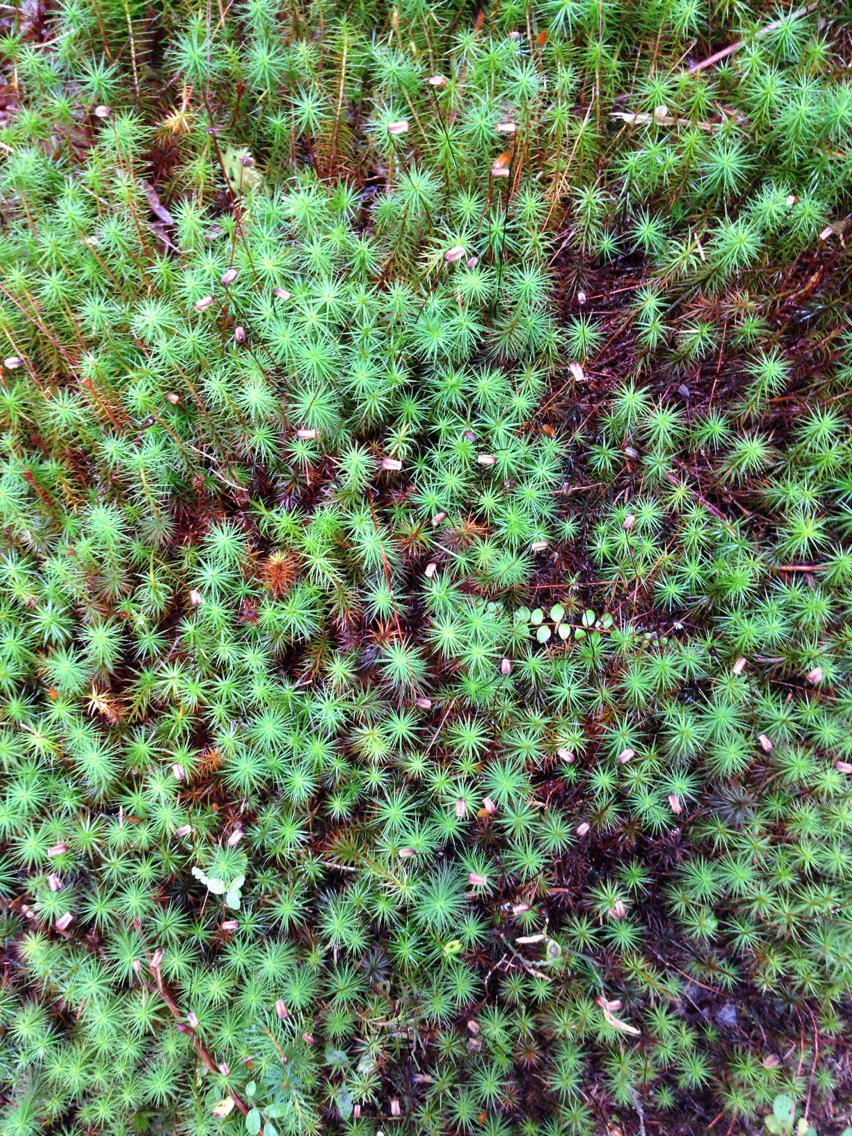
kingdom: Plantae
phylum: Bryophyta
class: Polytrichopsida
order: Polytrichales
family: Polytrichaceae
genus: Polytrichum
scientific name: Polytrichum commune
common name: Common haircap
